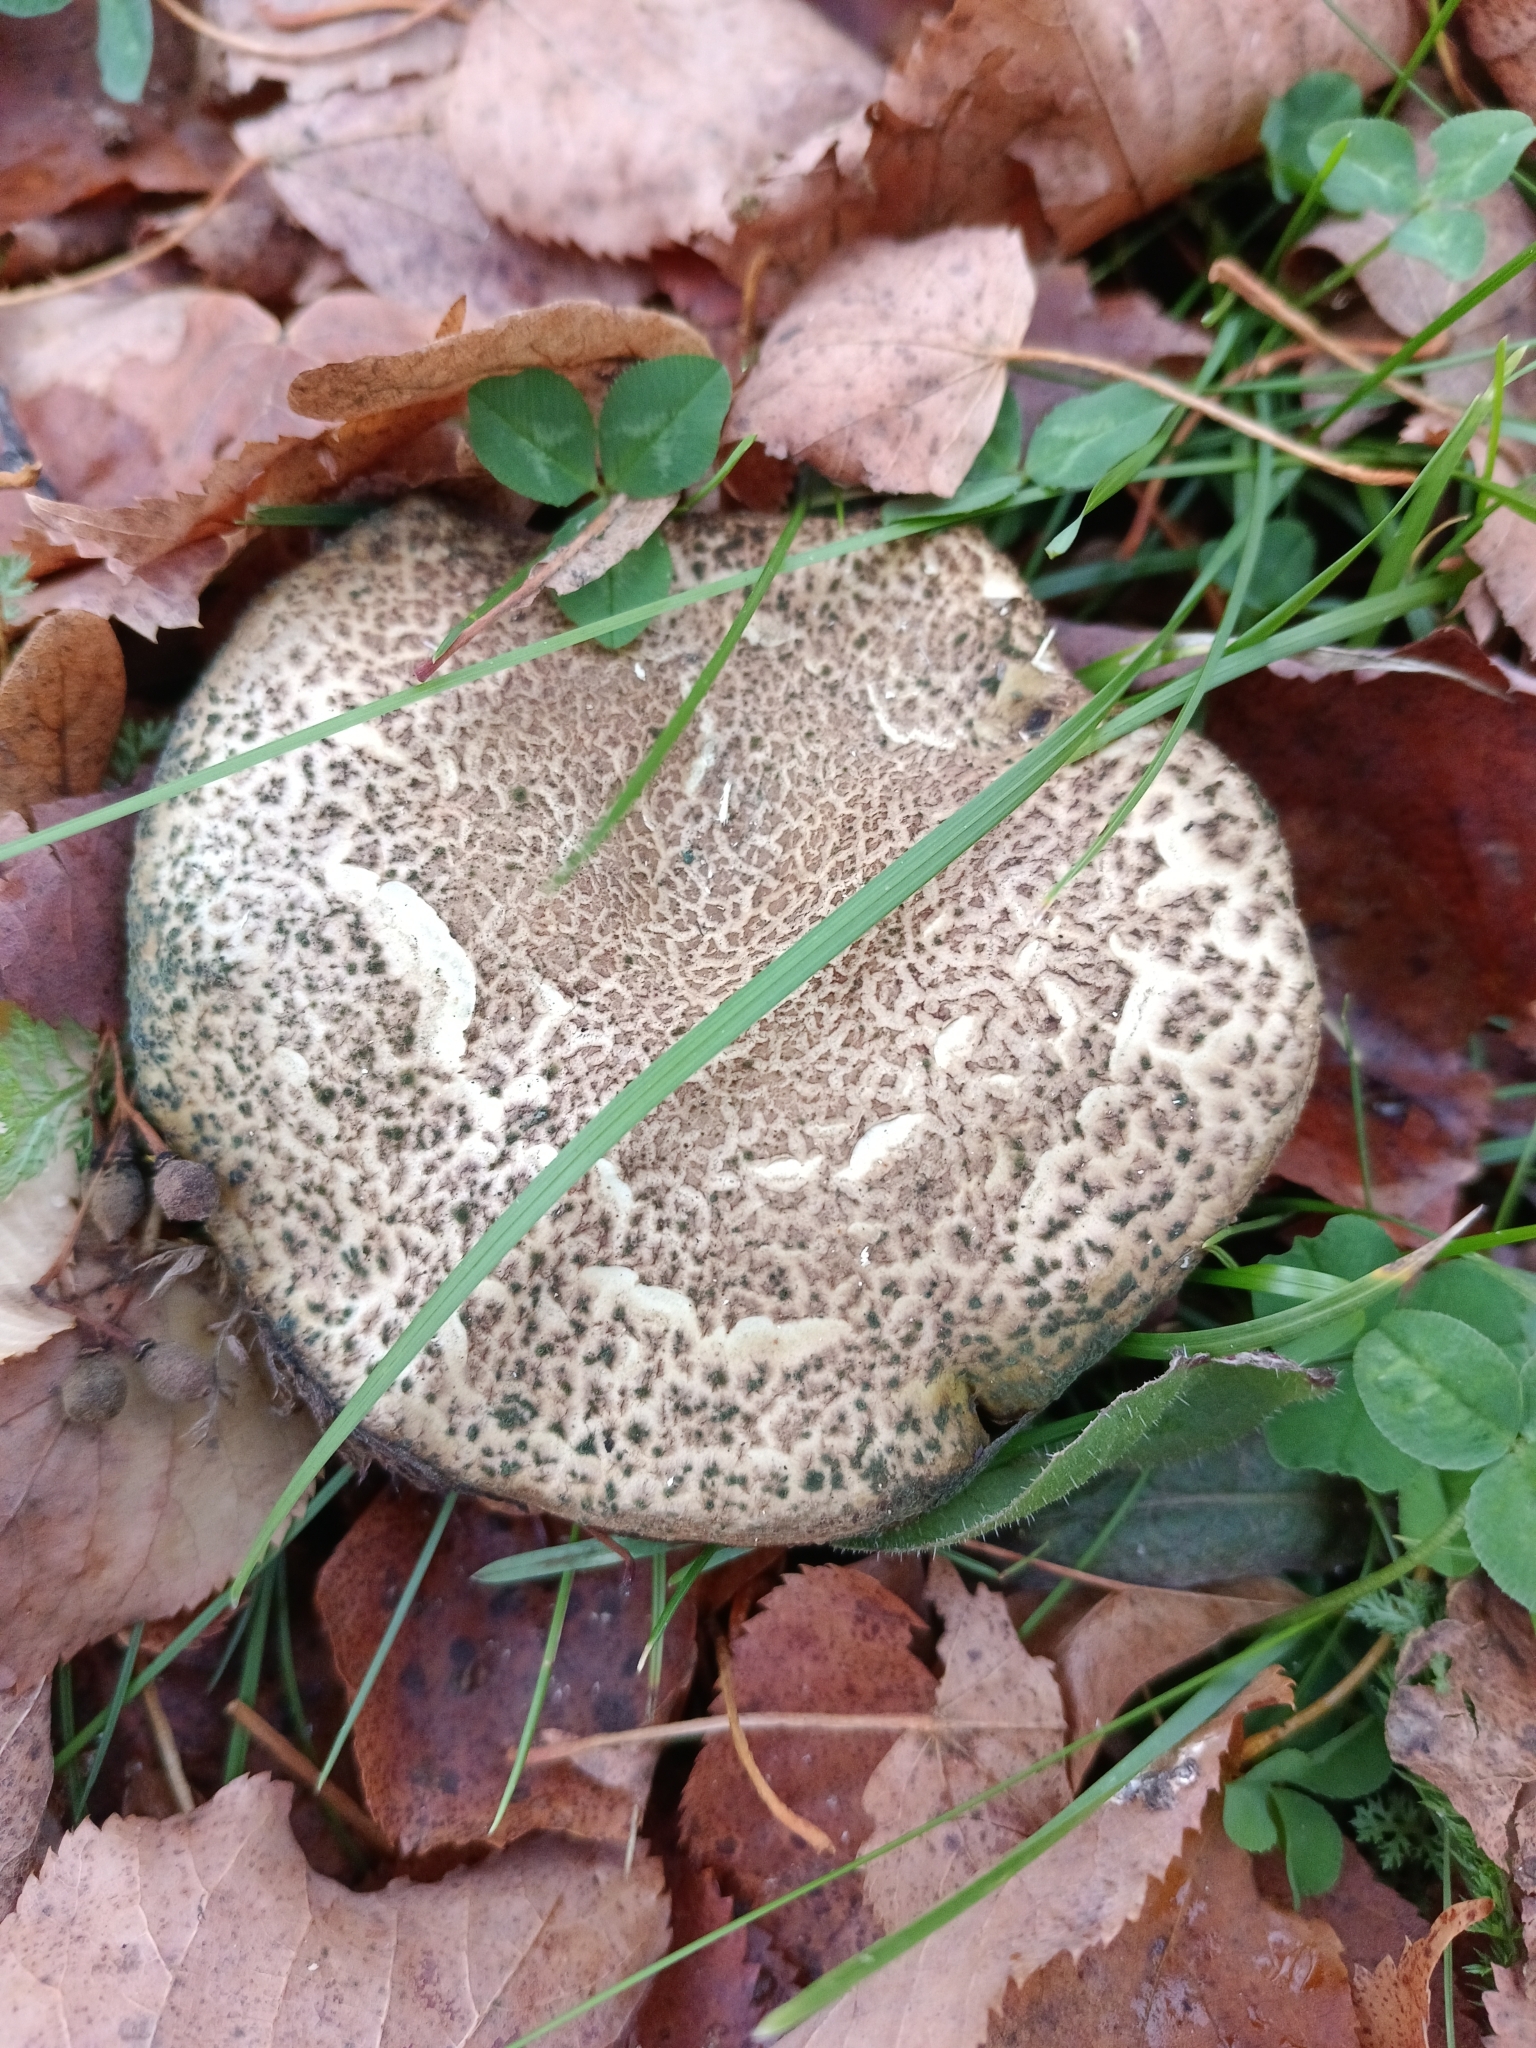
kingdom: Fungi
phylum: Basidiomycota
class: Agaricomycetes
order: Boletales
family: Boletaceae
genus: Xerocomellus
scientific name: Xerocomellus chrysenteron
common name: Red-cracking bolete
